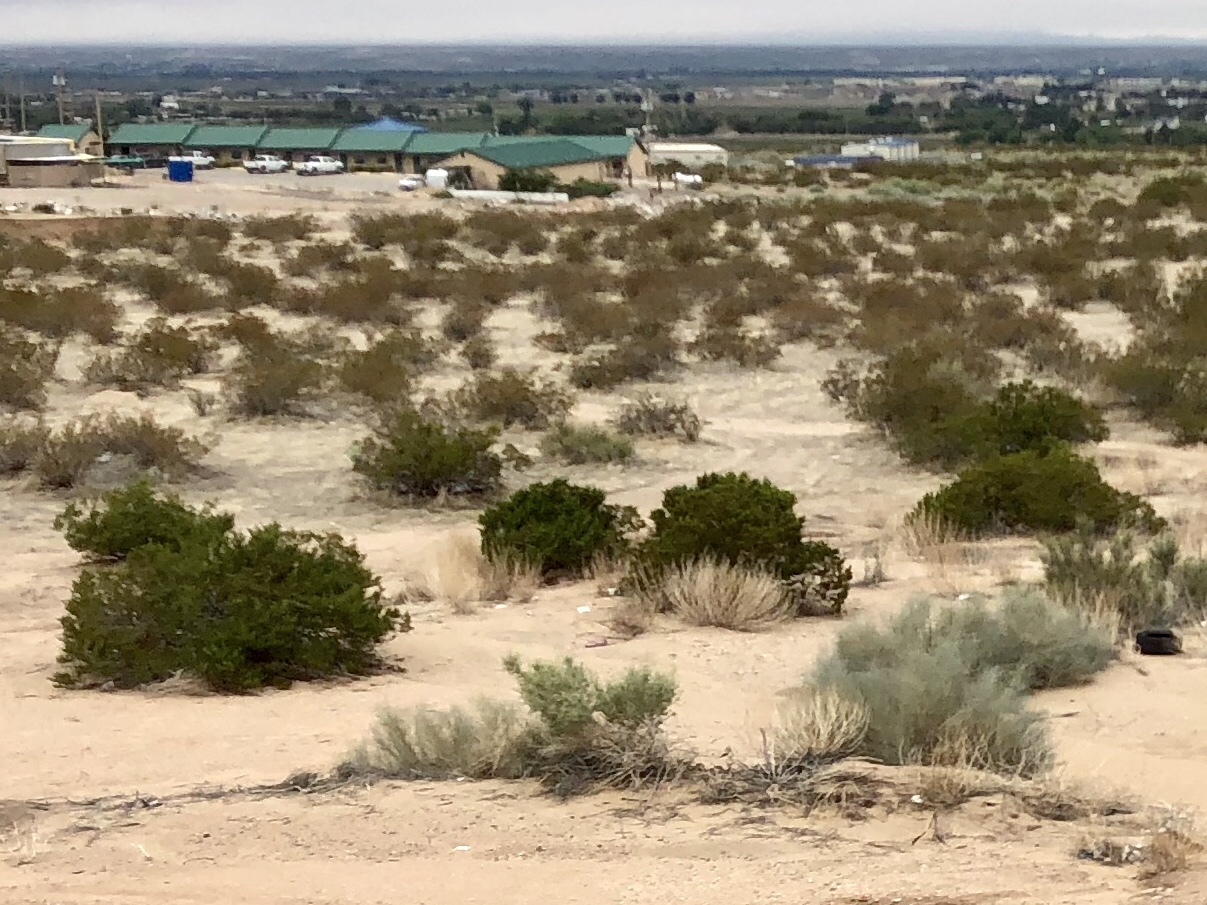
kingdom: Plantae
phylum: Tracheophyta
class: Magnoliopsida
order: Zygophyllales
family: Zygophyllaceae
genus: Larrea
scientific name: Larrea tridentata
